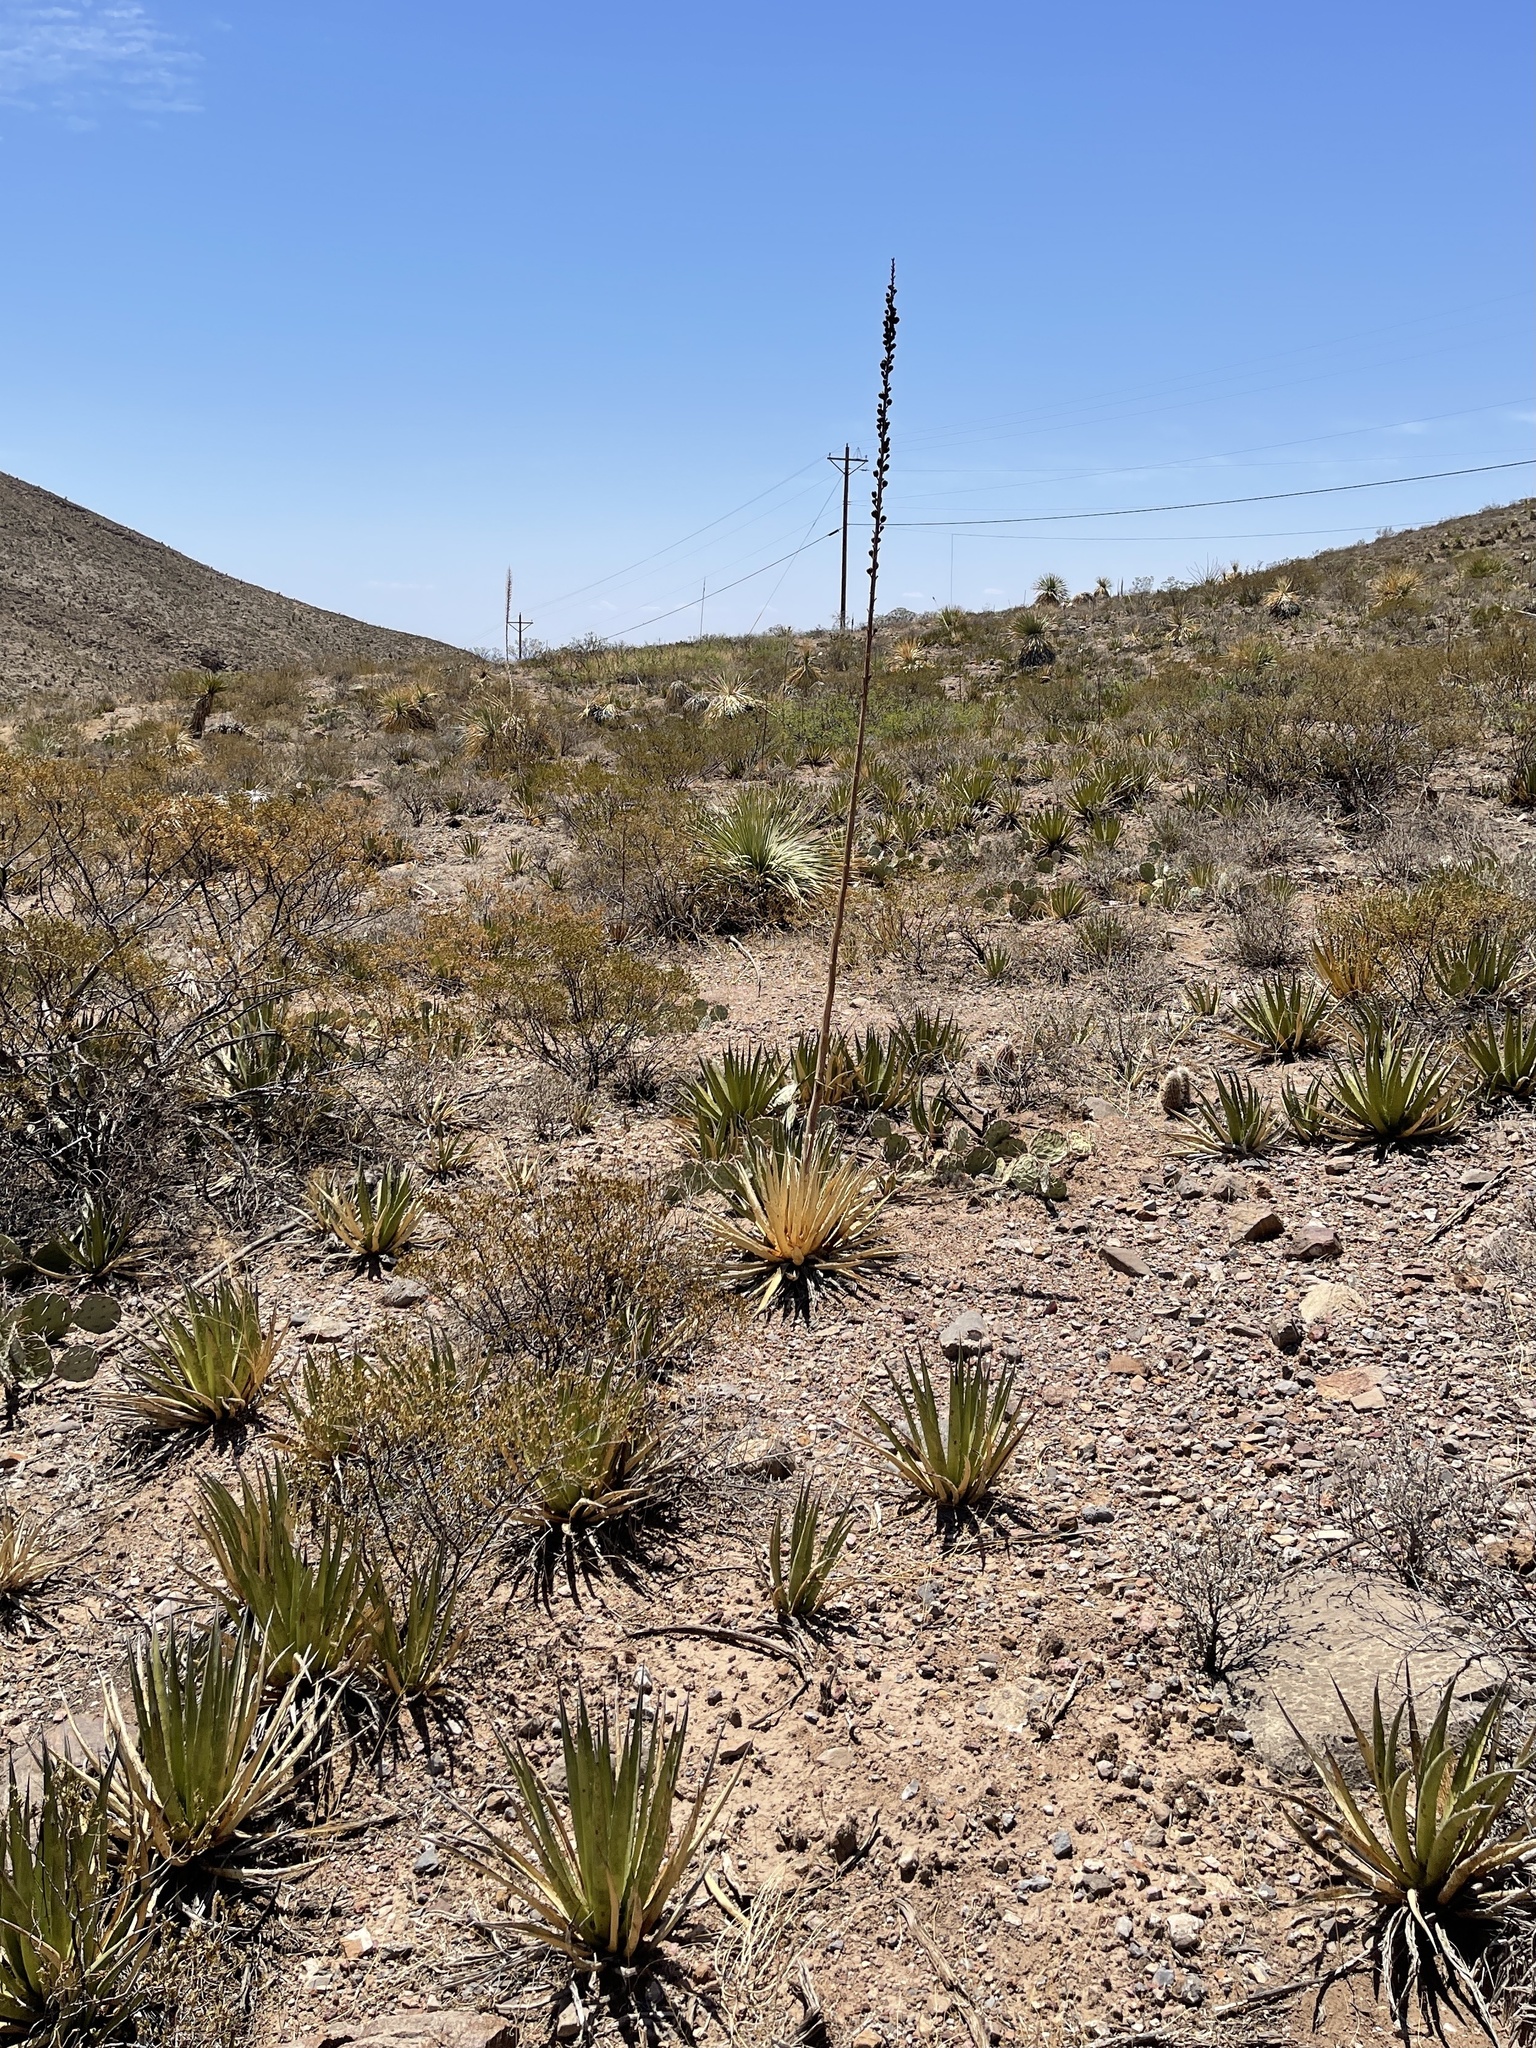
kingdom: Plantae
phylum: Tracheophyta
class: Liliopsida
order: Asparagales
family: Asparagaceae
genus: Agave
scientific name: Agave lechuguilla
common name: Lecheguilla agave
